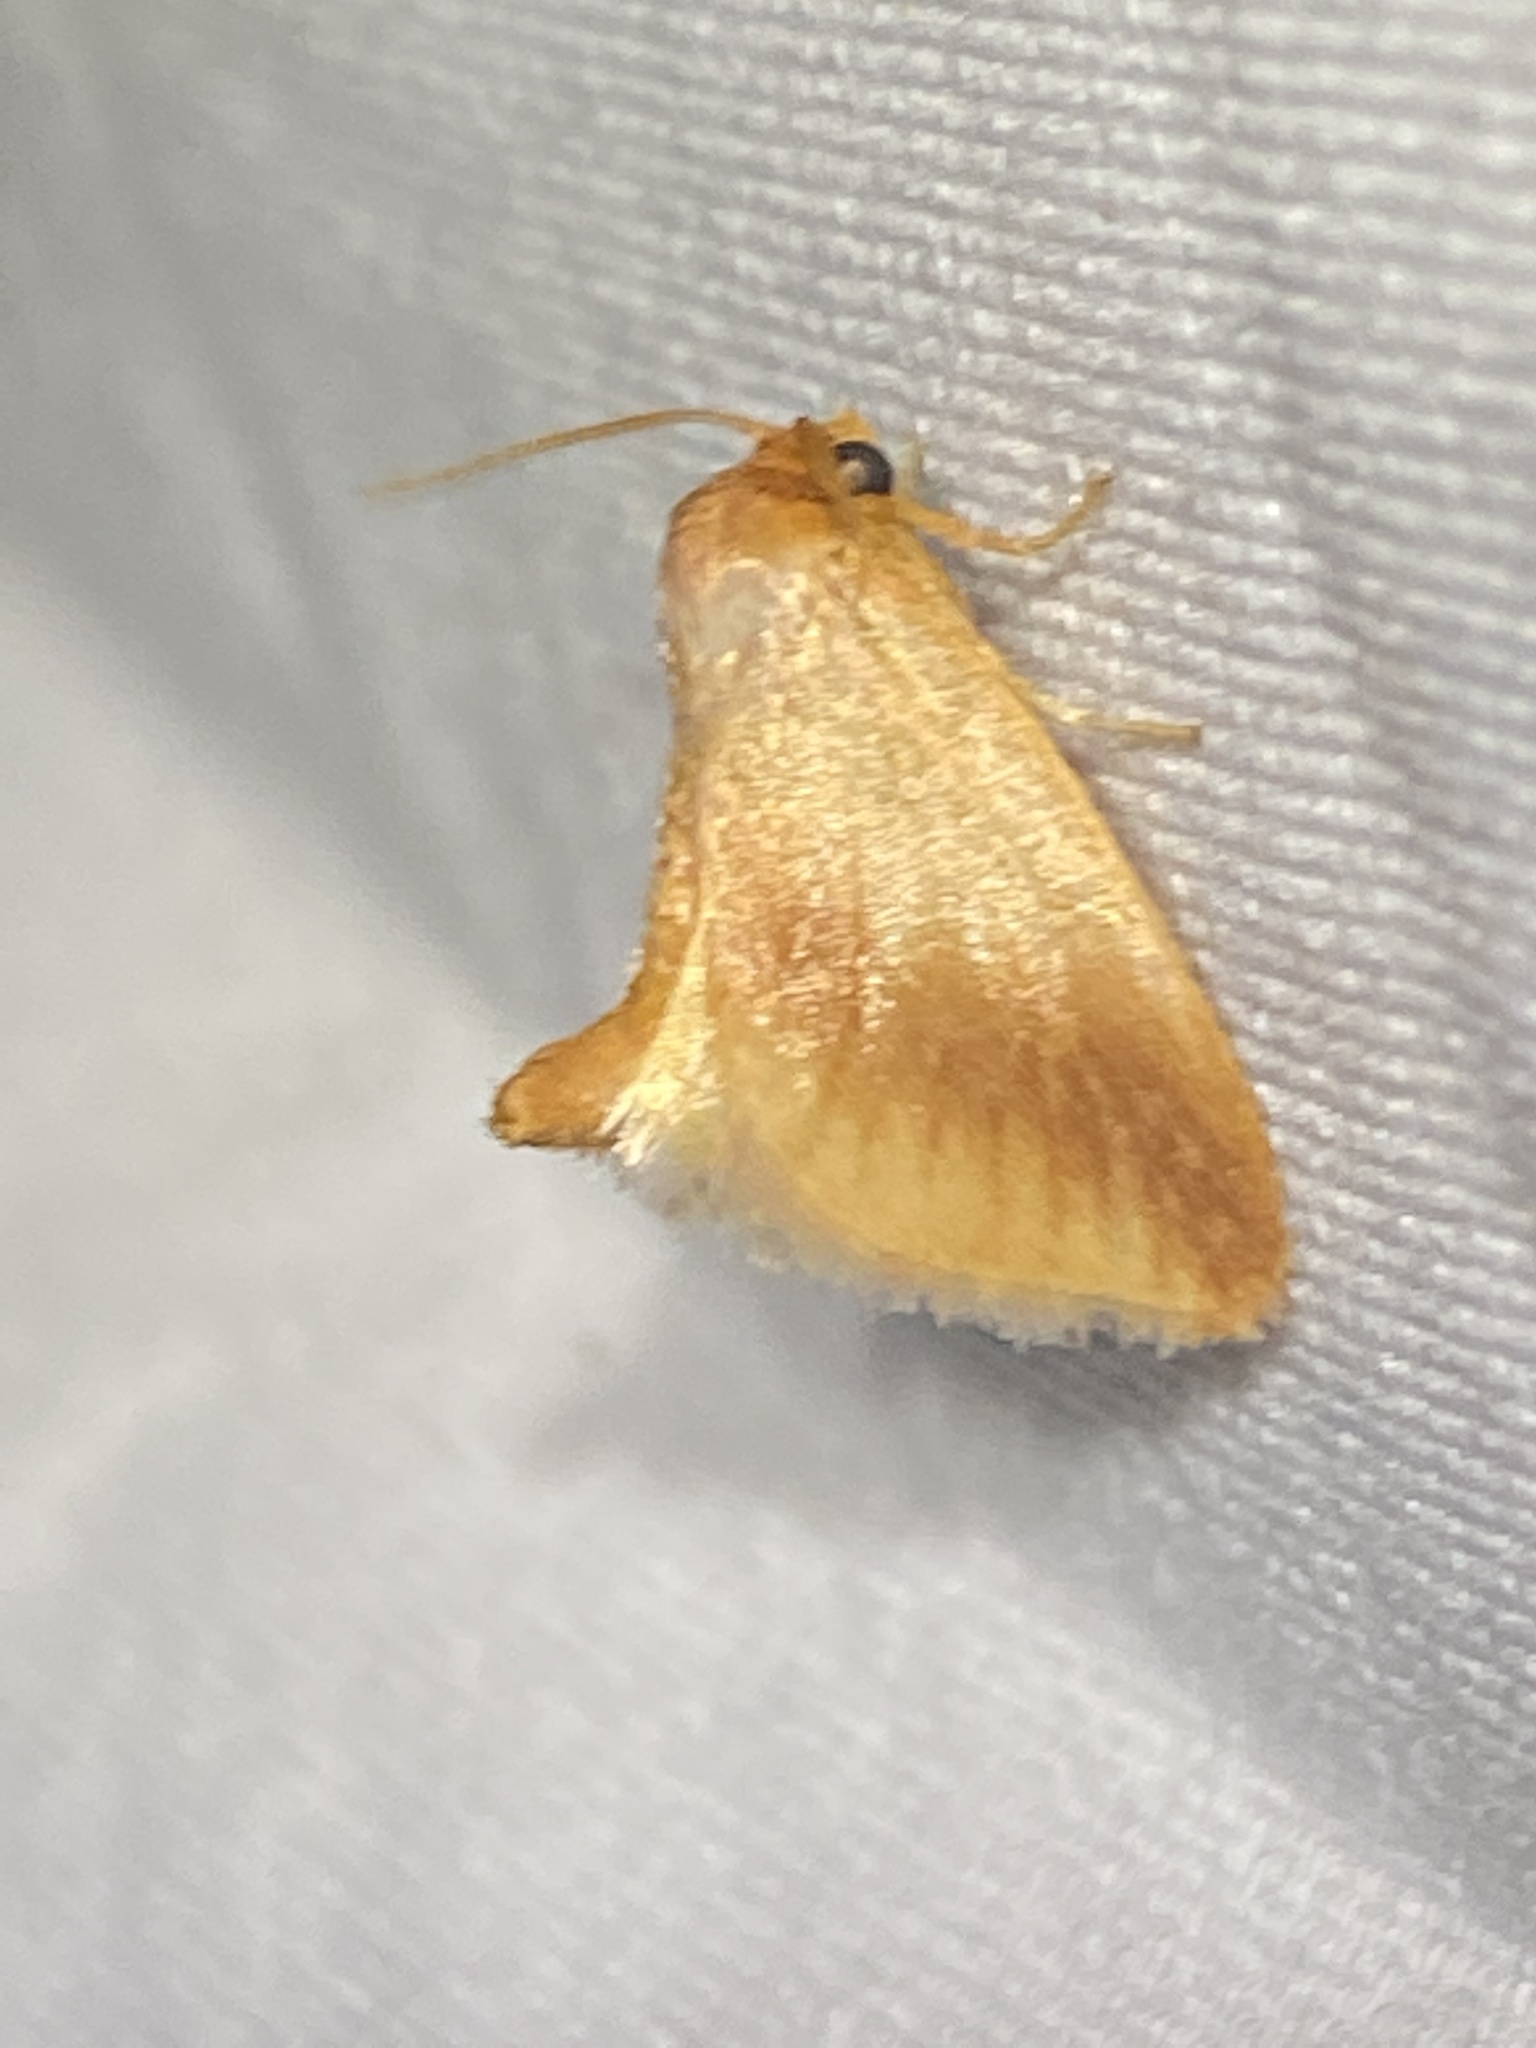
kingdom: Animalia
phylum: Arthropoda
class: Insecta
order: Lepidoptera
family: Limacodidae
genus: Tortricidia
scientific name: Tortricidia testacea
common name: Early button slug moth
